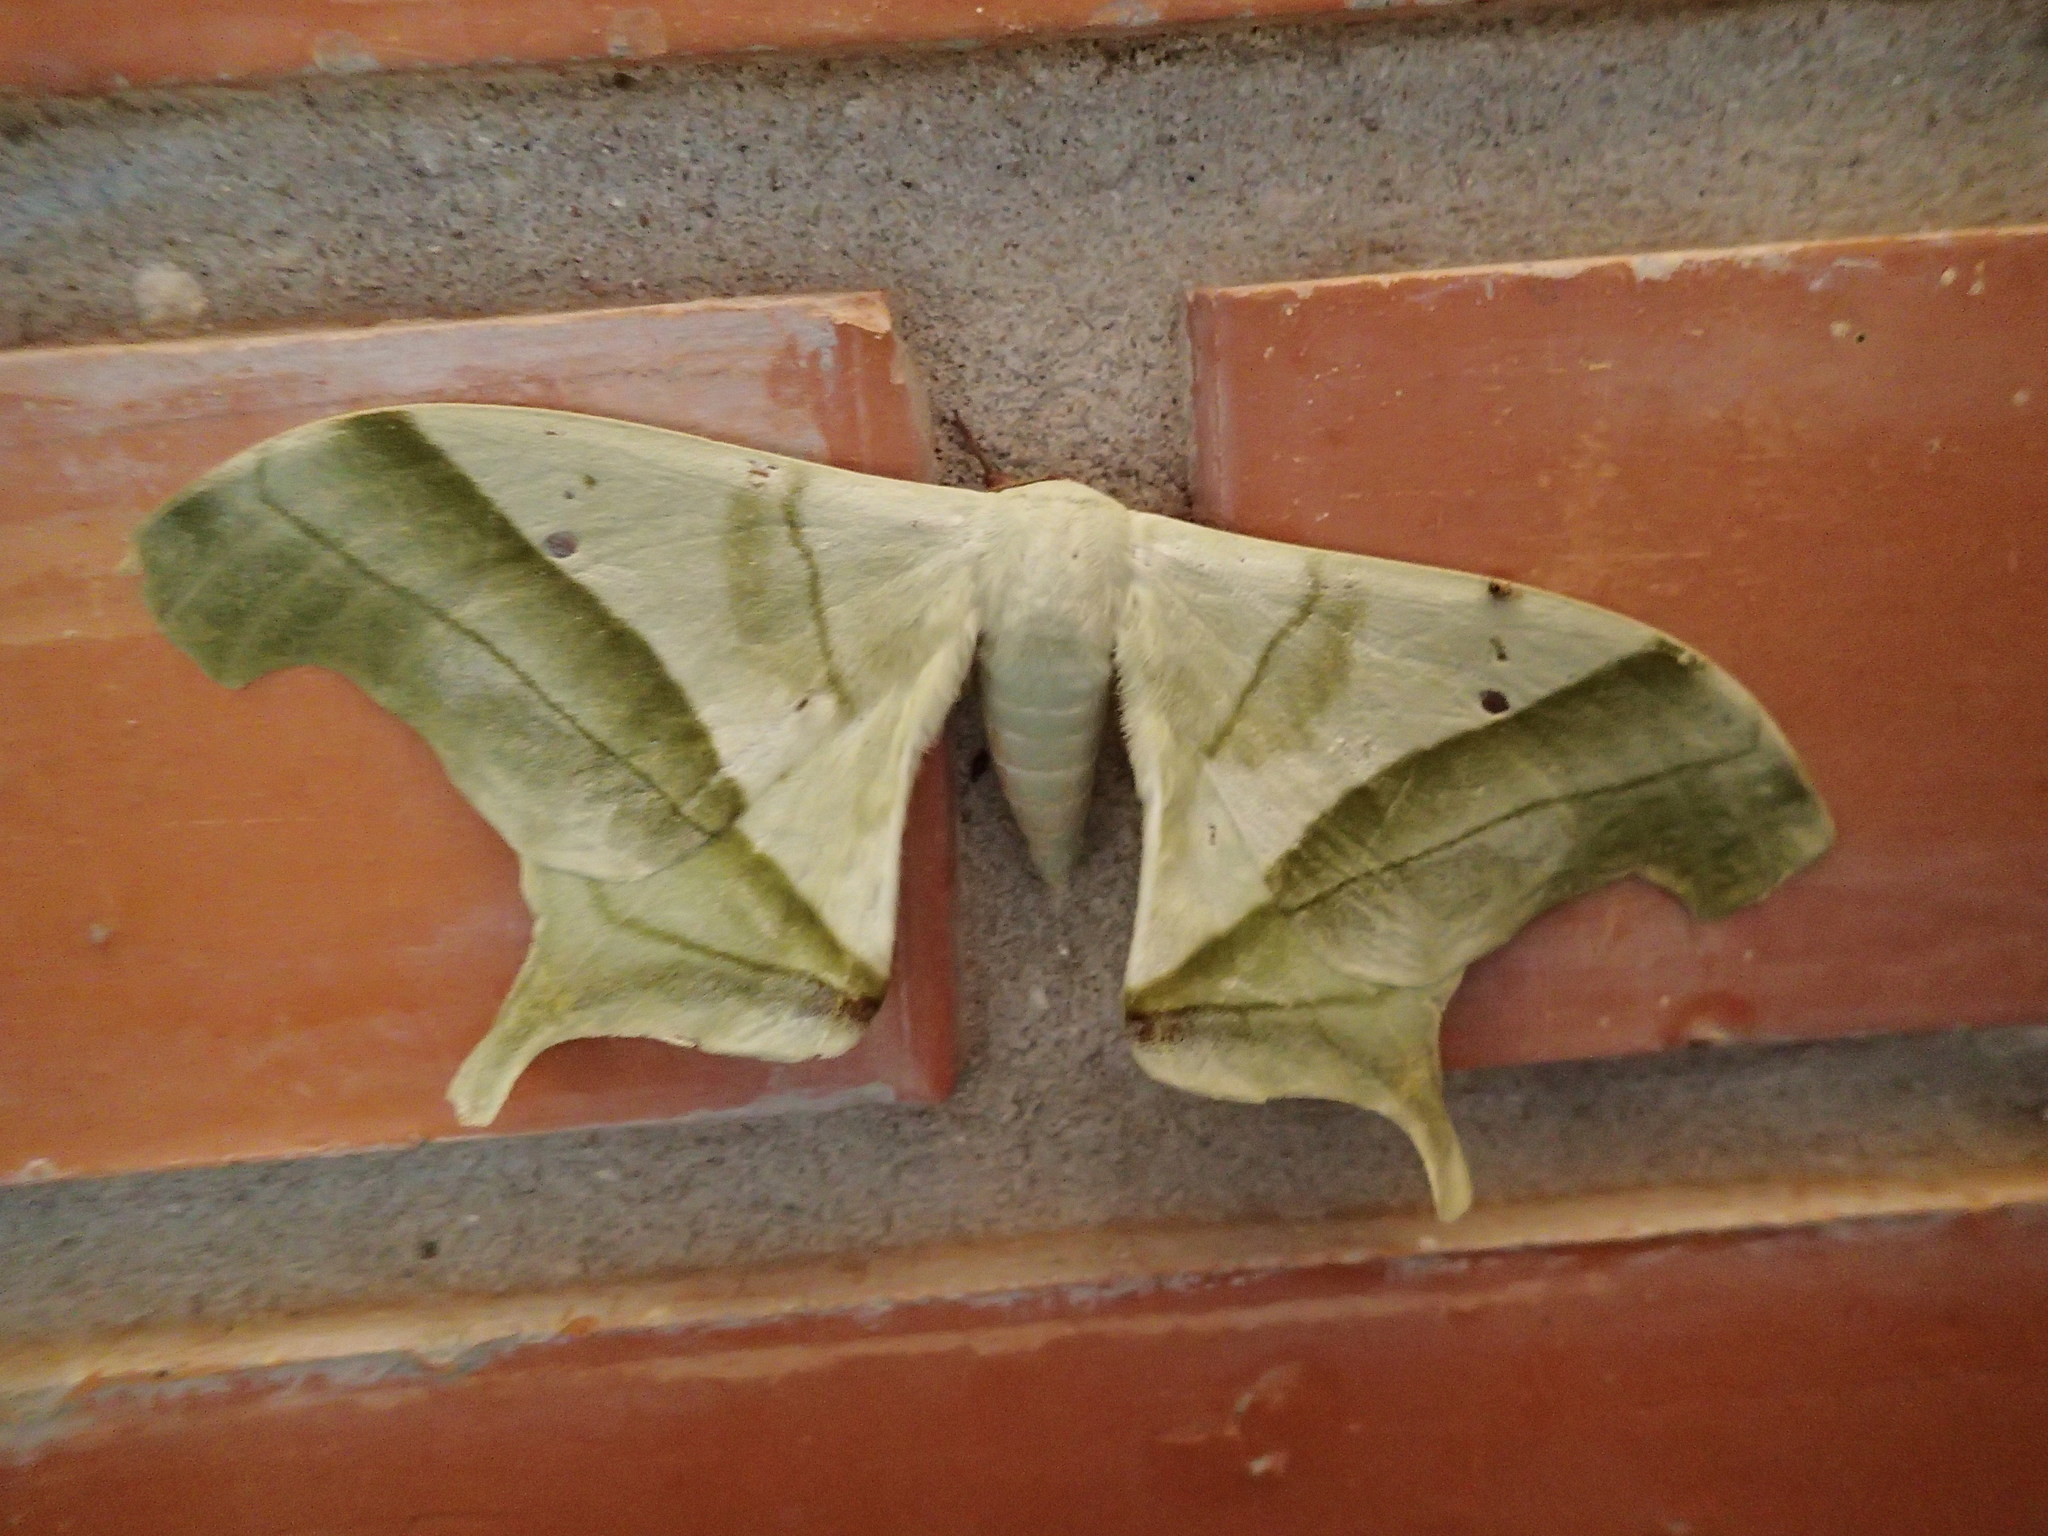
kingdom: Animalia
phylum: Arthropoda
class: Insecta
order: Lepidoptera
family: Saturniidae
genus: Dysdaemonia
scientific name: Dysdaemonia fosteri
